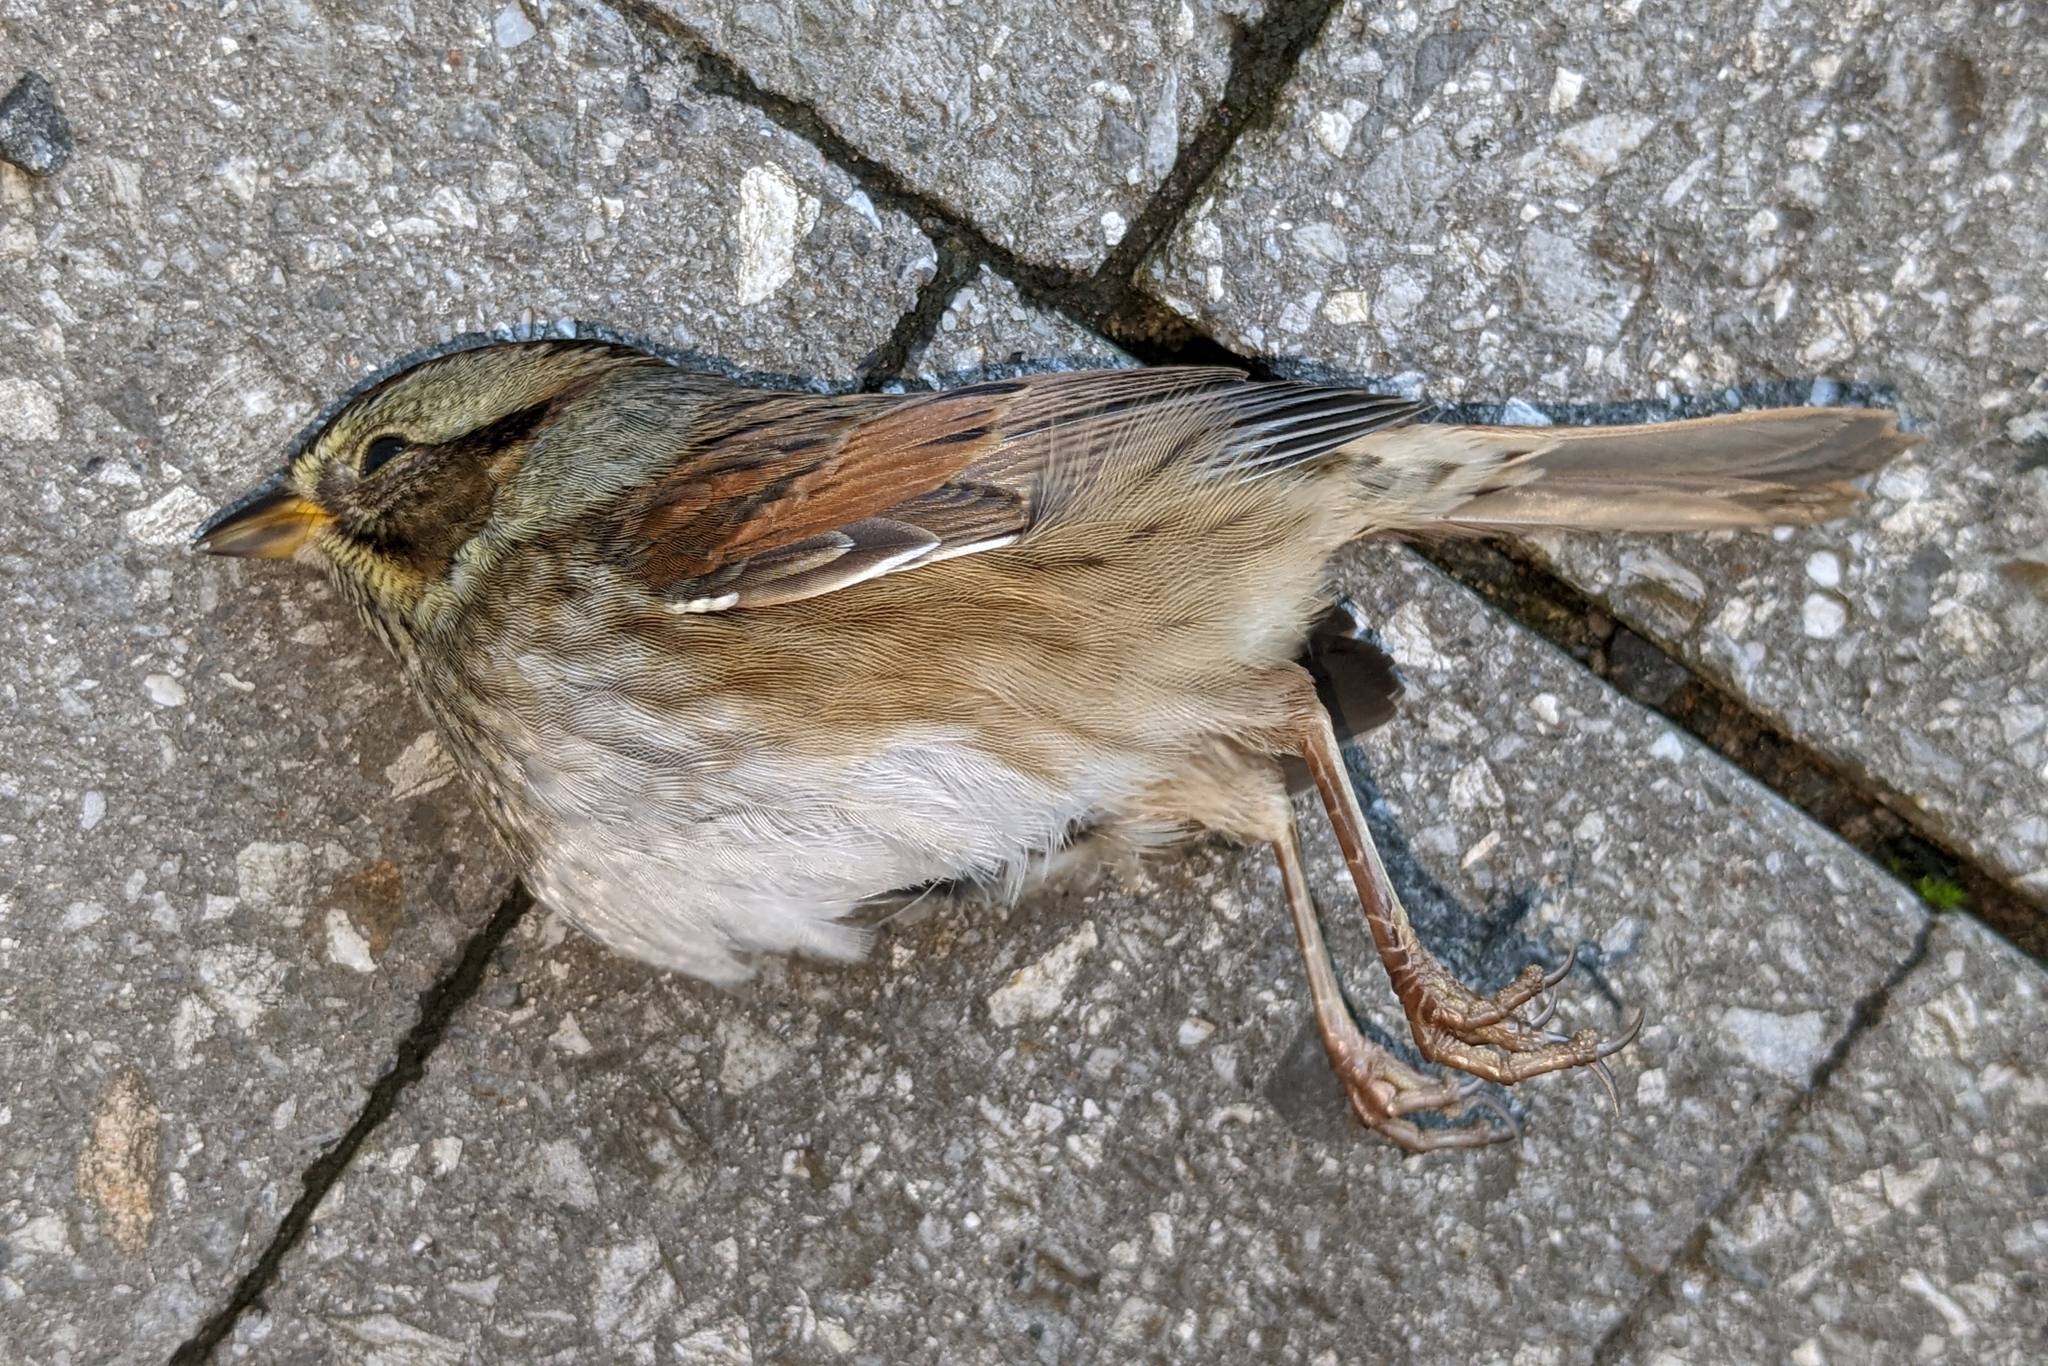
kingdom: Animalia
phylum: Chordata
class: Aves
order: Passeriformes
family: Passerellidae
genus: Melospiza
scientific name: Melospiza georgiana
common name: Swamp sparrow
